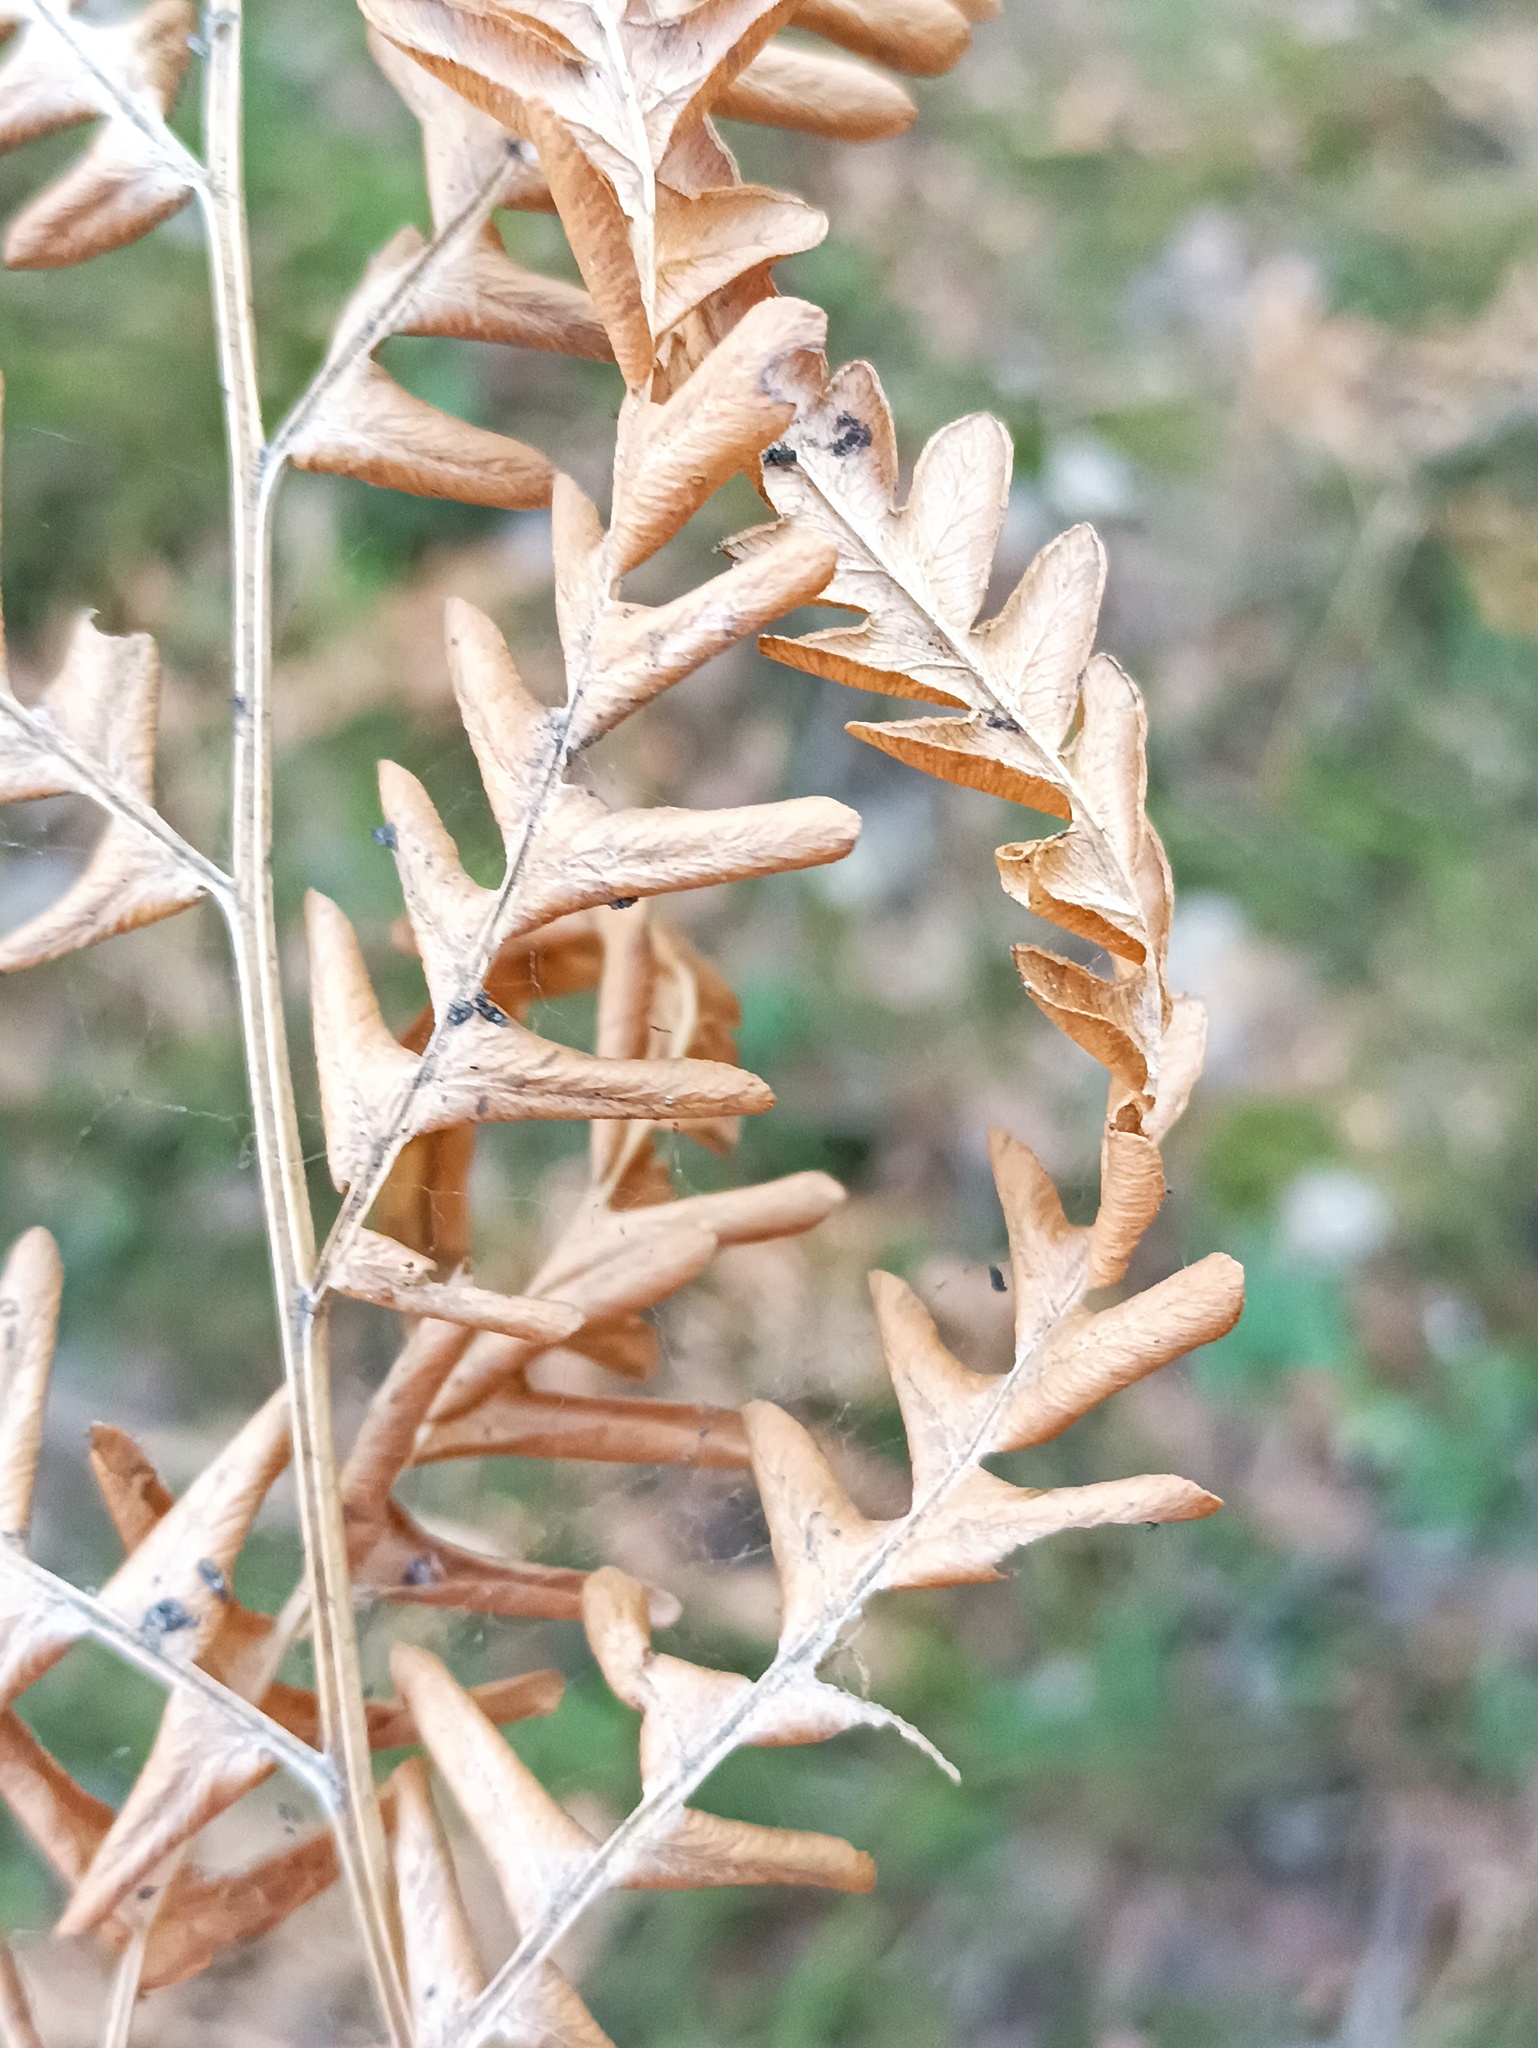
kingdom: Plantae
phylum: Tracheophyta
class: Polypodiopsida
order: Polypodiales
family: Dennstaedtiaceae
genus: Pteridium
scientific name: Pteridium aquilinum
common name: Bracken
